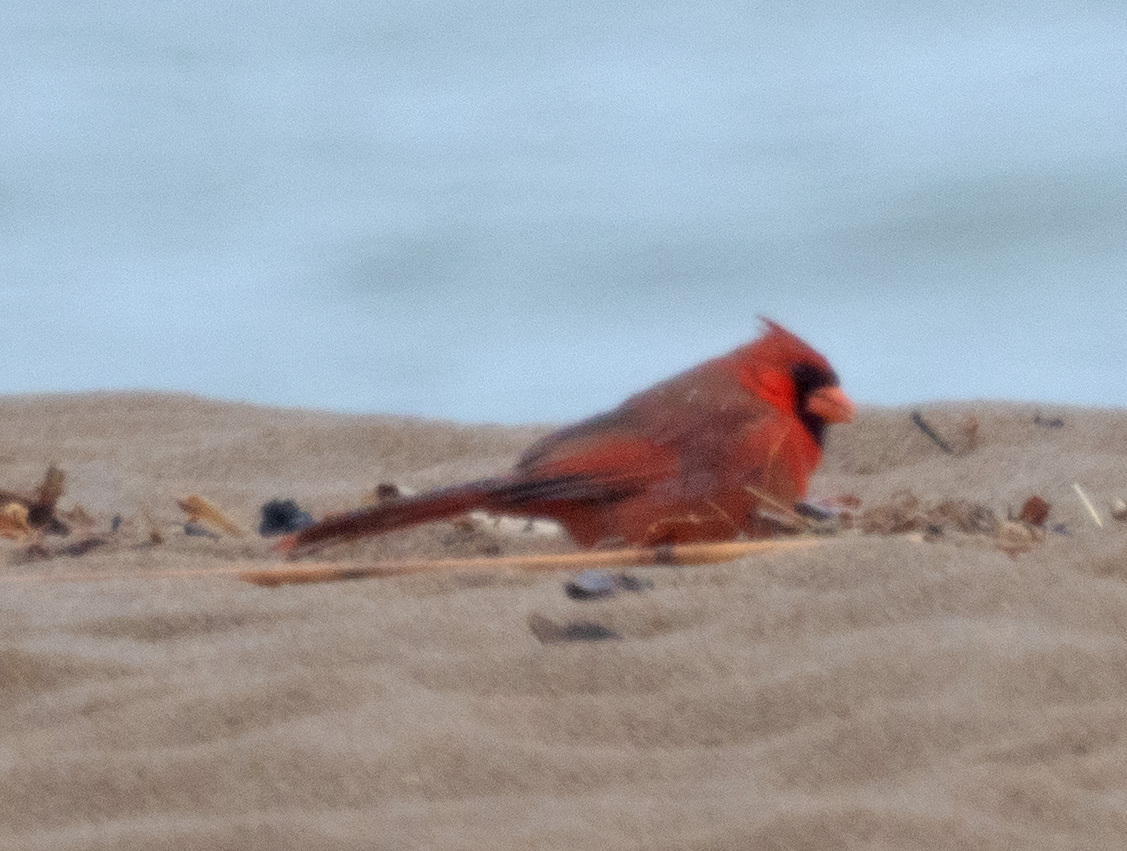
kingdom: Animalia
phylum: Chordata
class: Aves
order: Passeriformes
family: Cardinalidae
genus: Cardinalis
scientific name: Cardinalis cardinalis
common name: Northern cardinal
